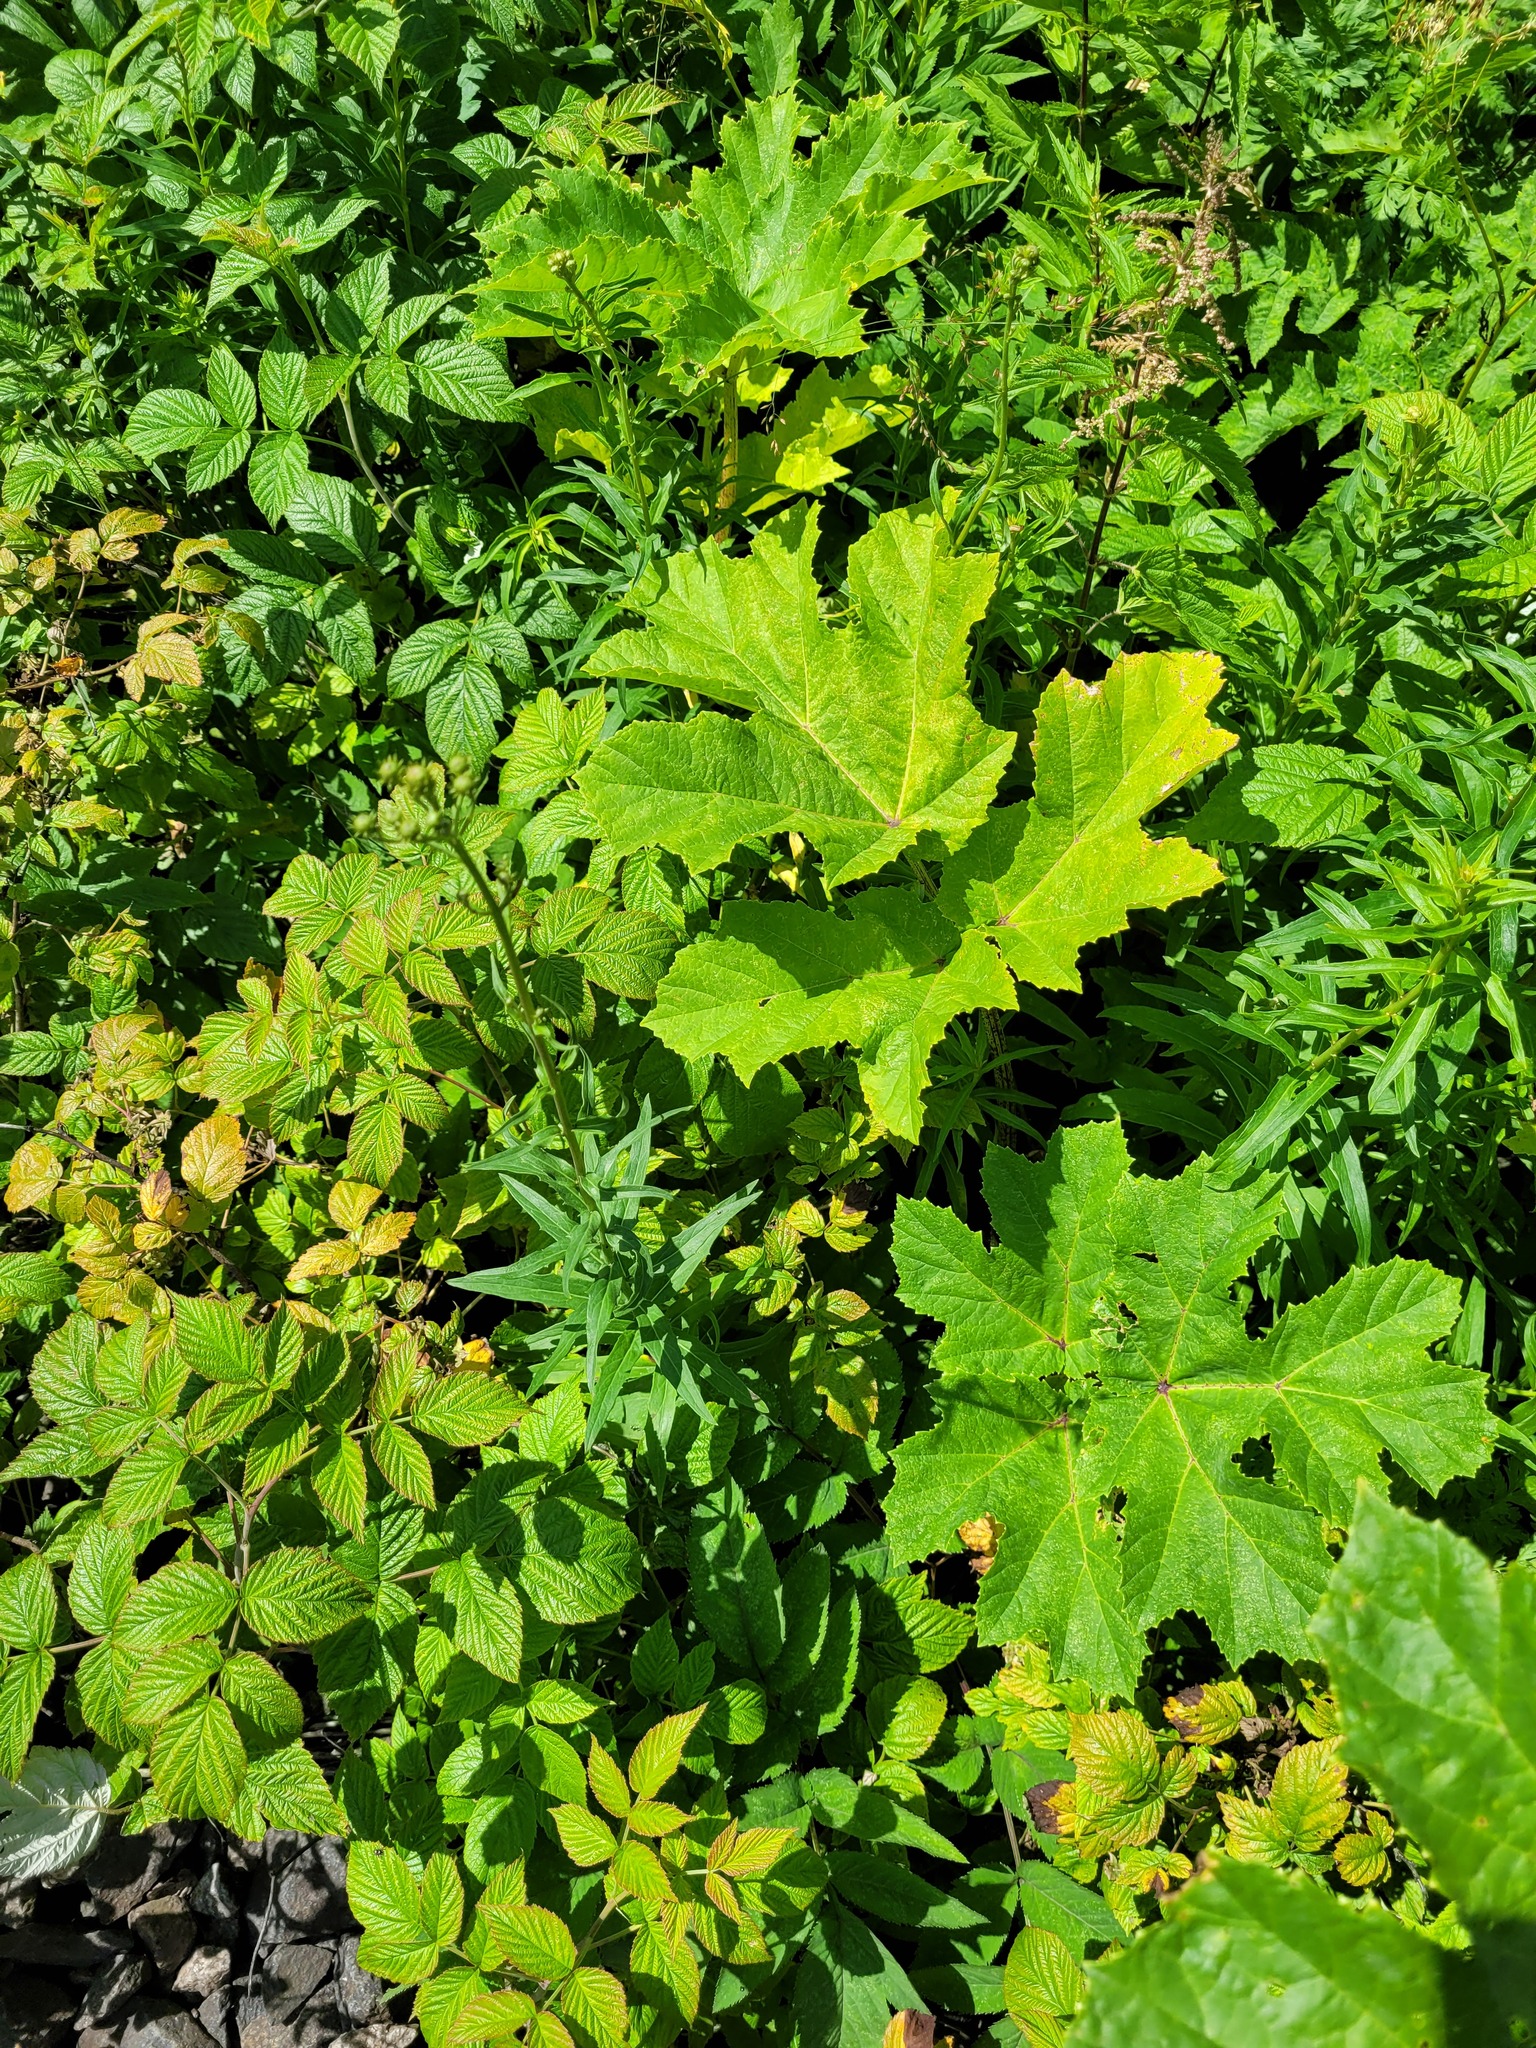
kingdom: Plantae
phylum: Tracheophyta
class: Magnoliopsida
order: Asterales
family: Asteraceae
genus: Hieracium
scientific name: Hieracium umbellatum
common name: Northern hawkweed
